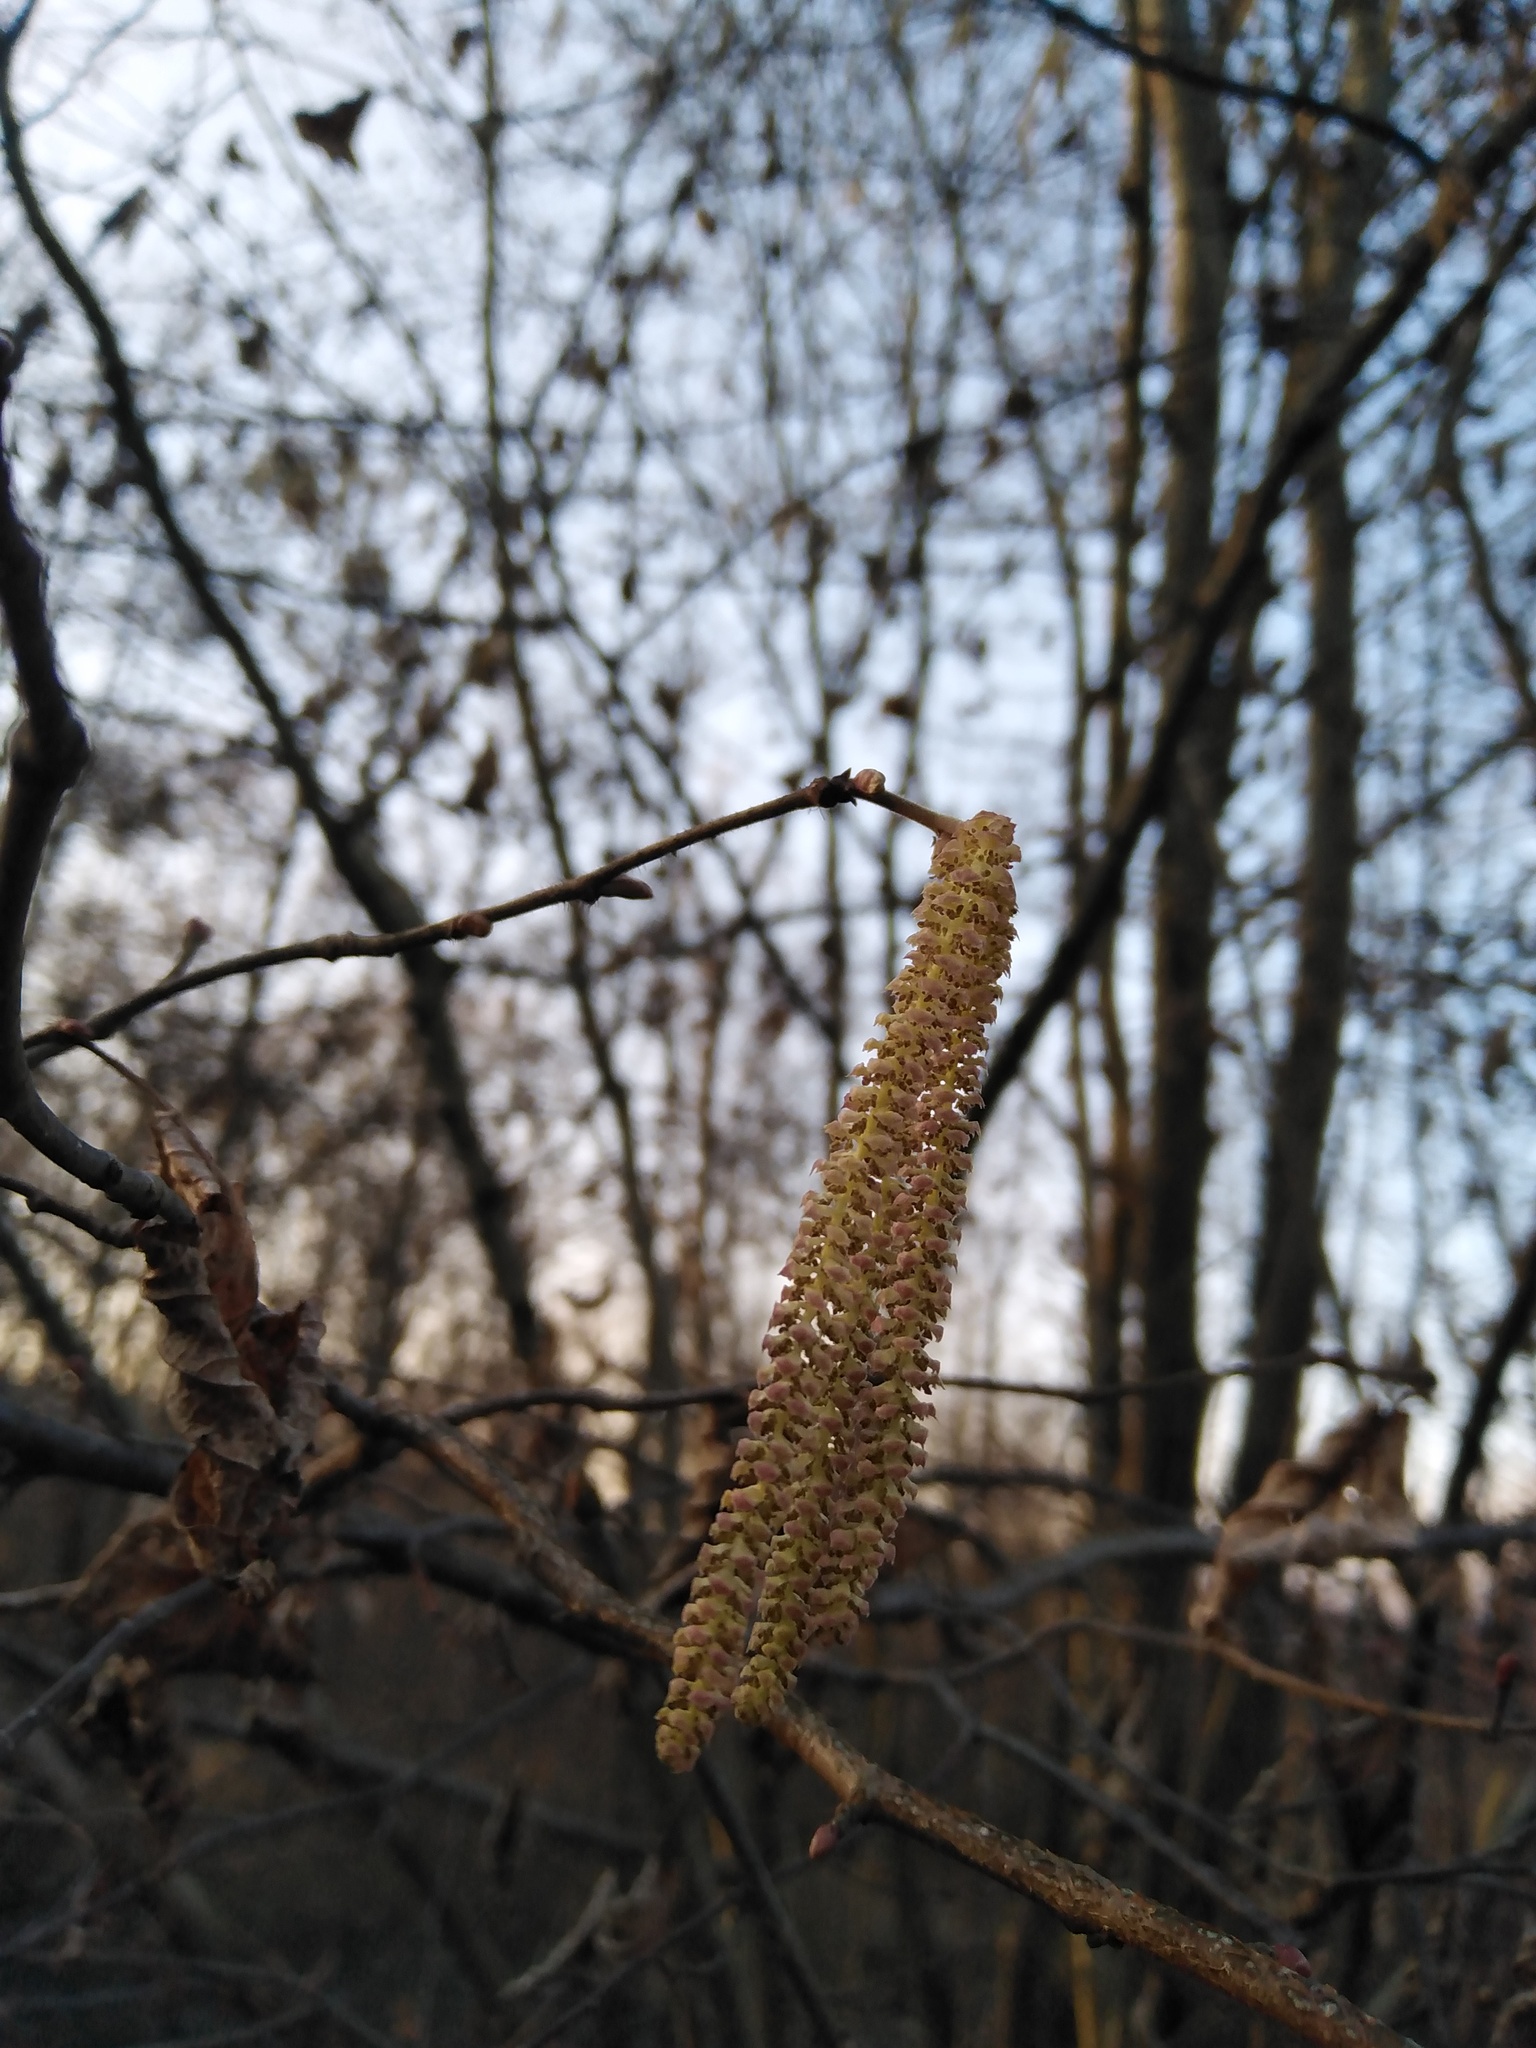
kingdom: Plantae
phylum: Tracheophyta
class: Magnoliopsida
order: Fagales
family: Betulaceae
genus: Corylus
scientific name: Corylus avellana
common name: European hazel
